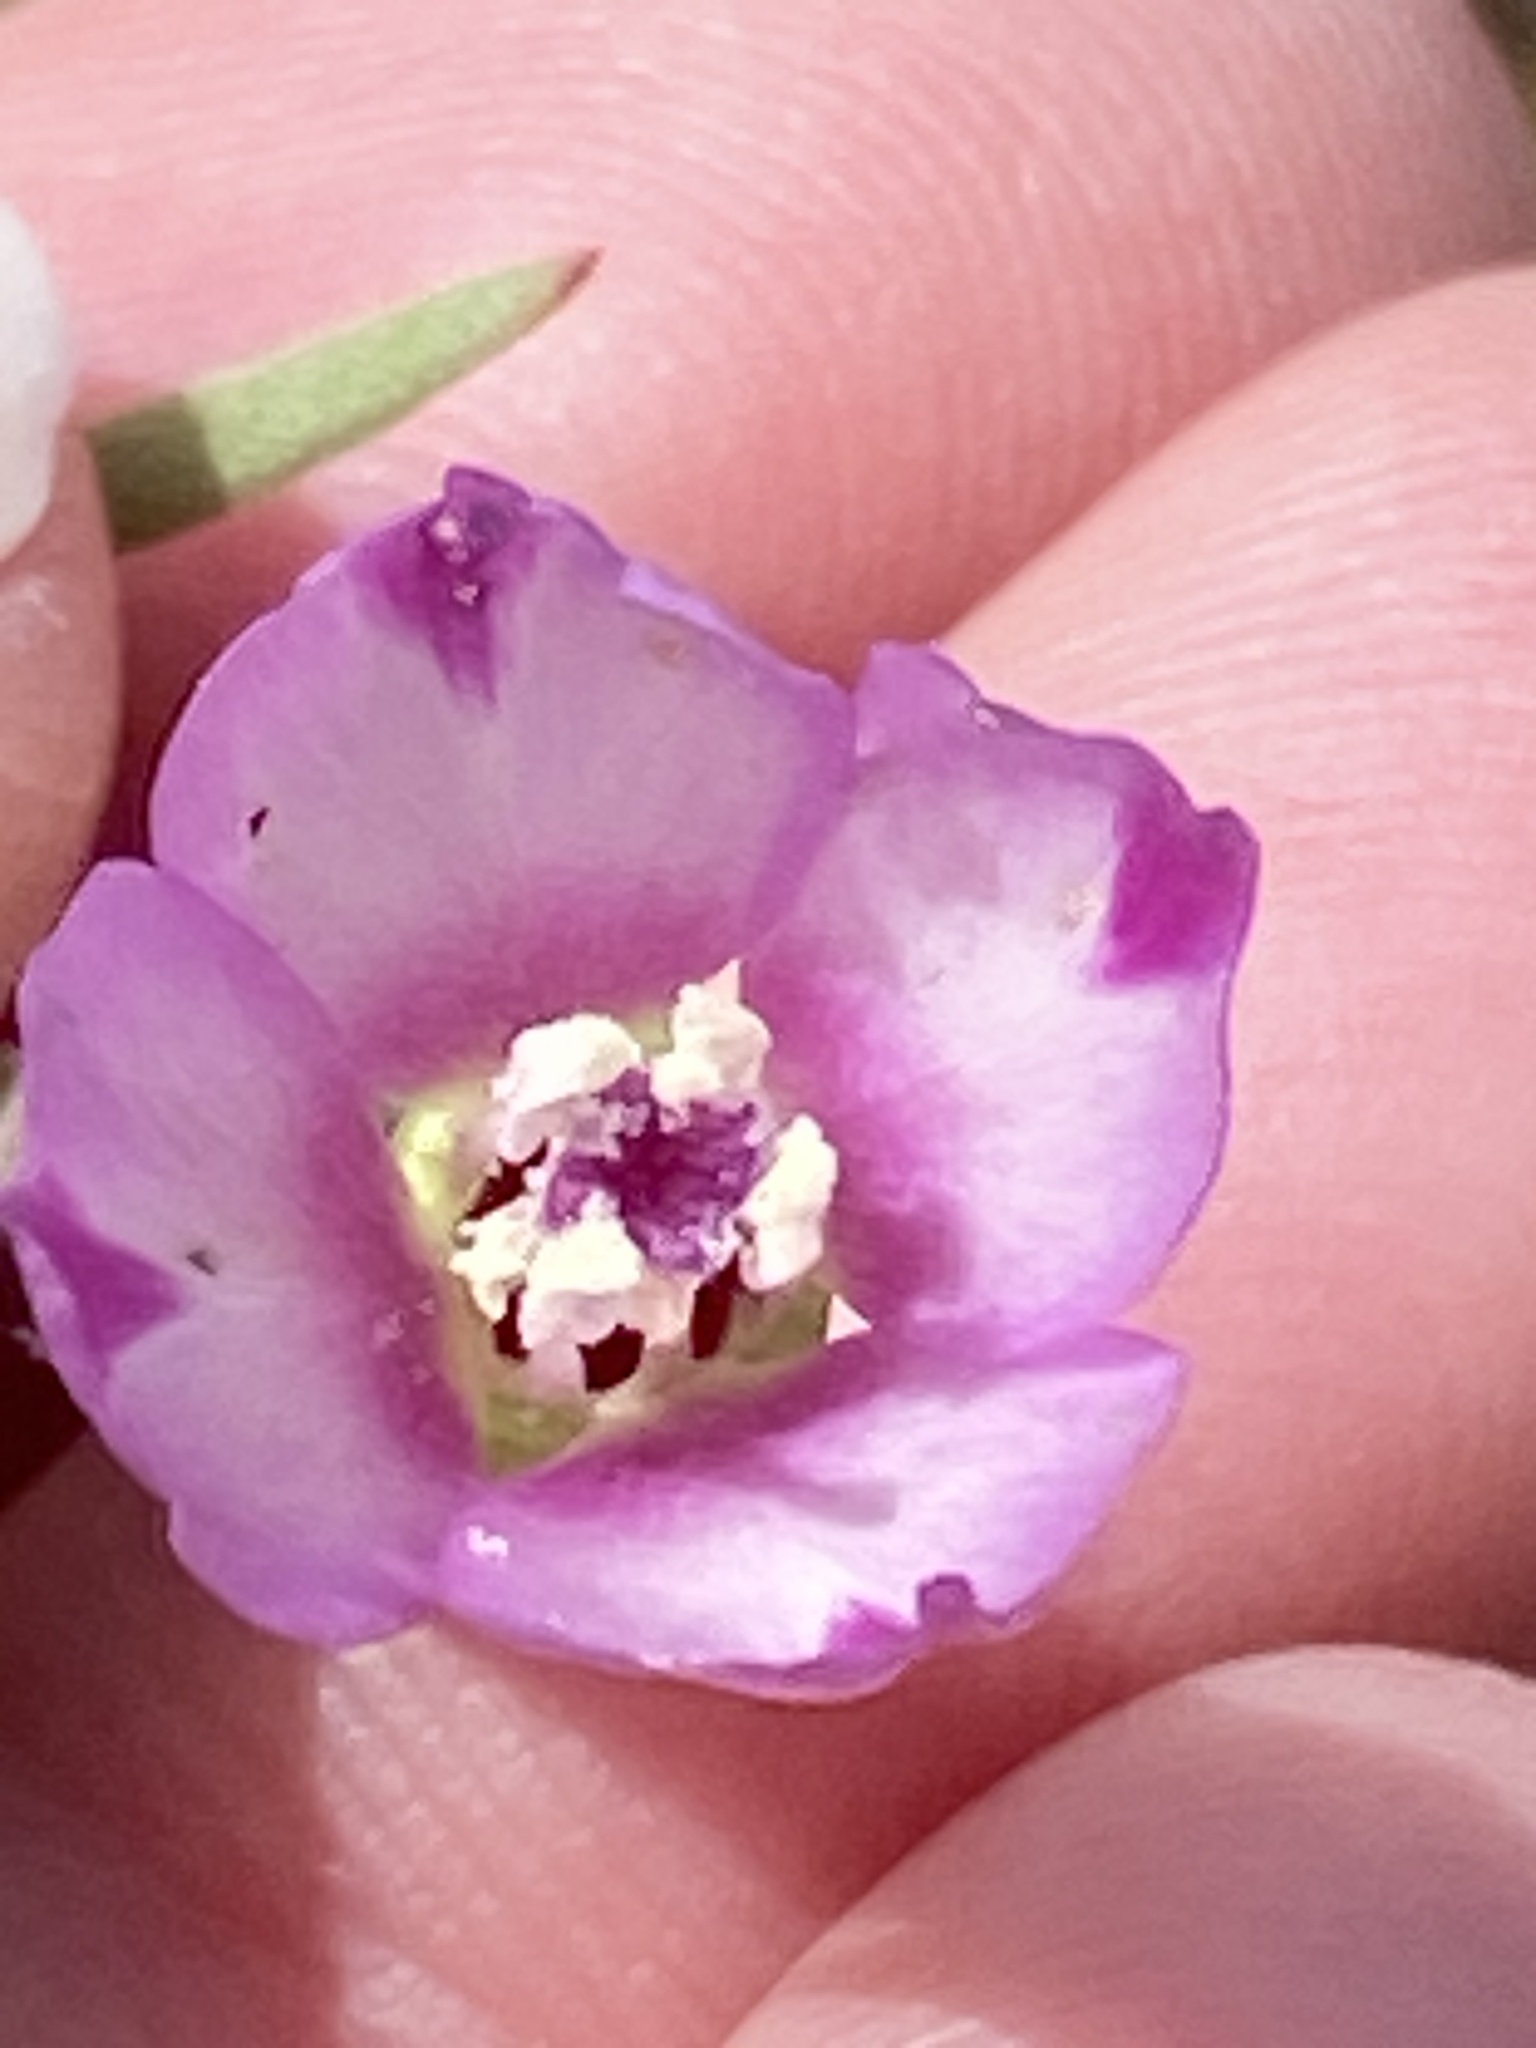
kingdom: Plantae
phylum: Tracheophyta
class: Magnoliopsida
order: Myrtales
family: Onagraceae
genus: Clarkia
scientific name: Clarkia purpurea
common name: Purple clarkia
